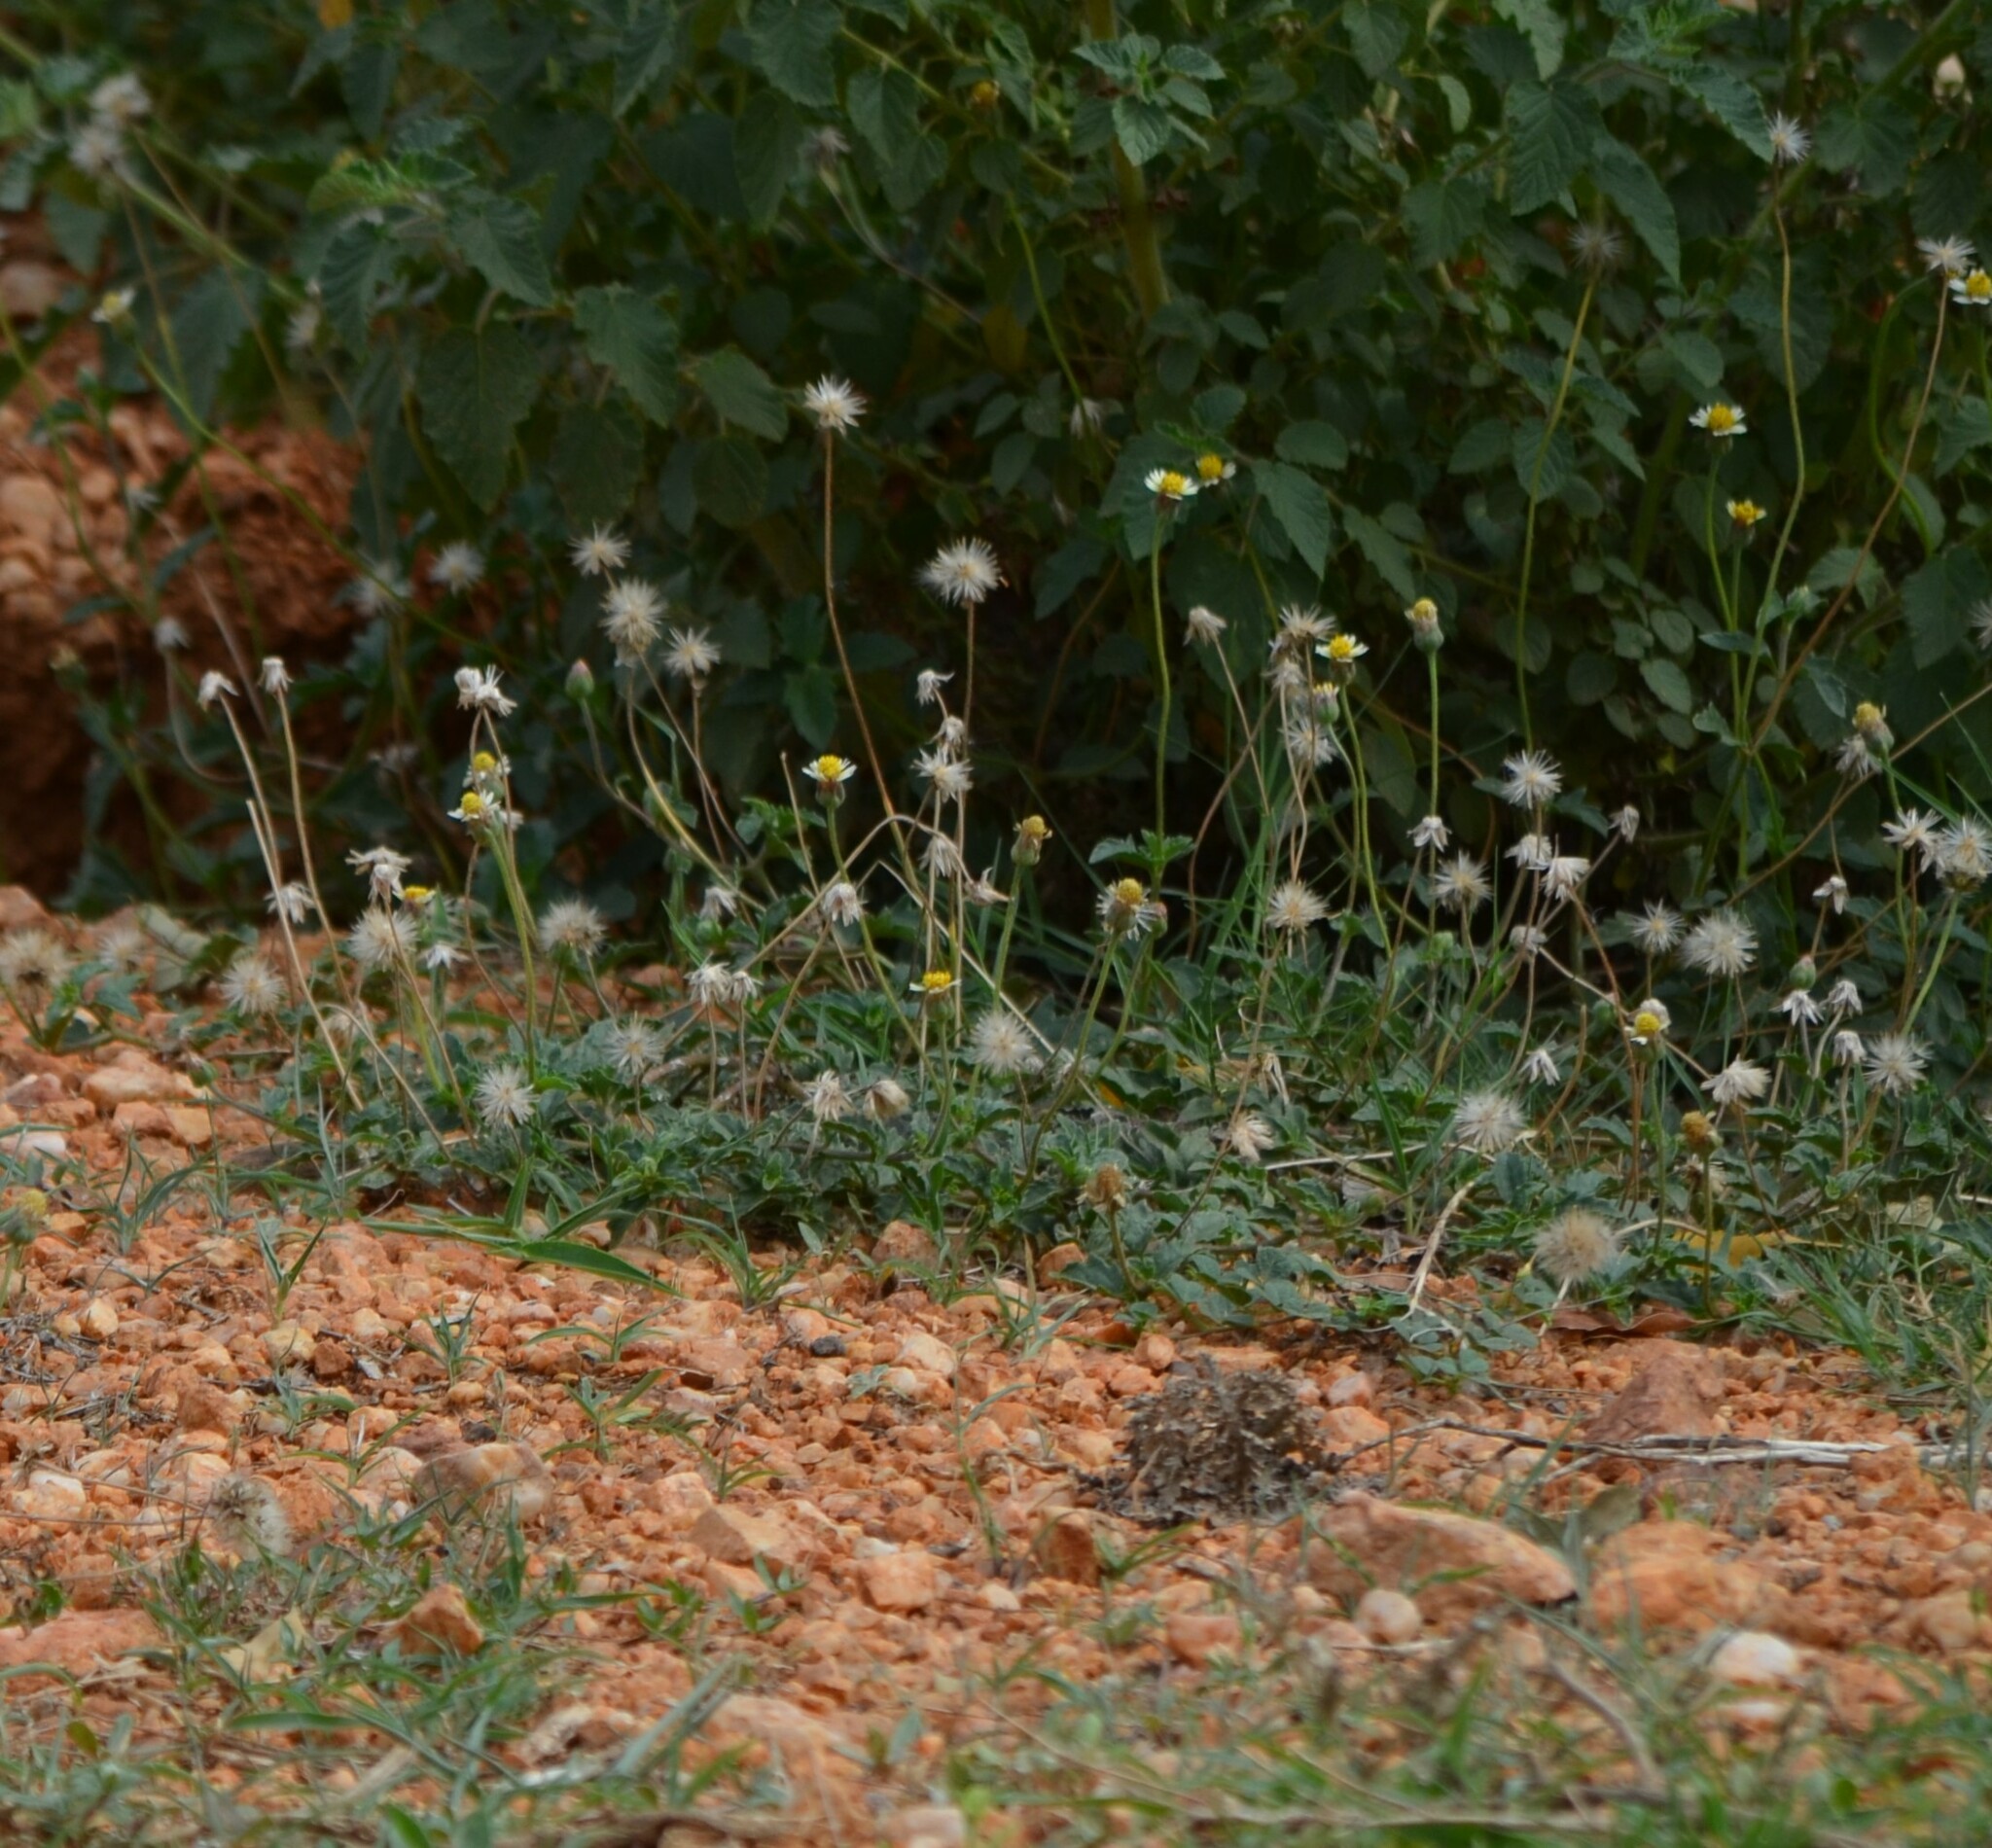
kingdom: Plantae
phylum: Tracheophyta
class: Magnoliopsida
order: Asterales
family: Asteraceae
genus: Tridax
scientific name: Tridax procumbens
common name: Coatbuttons
